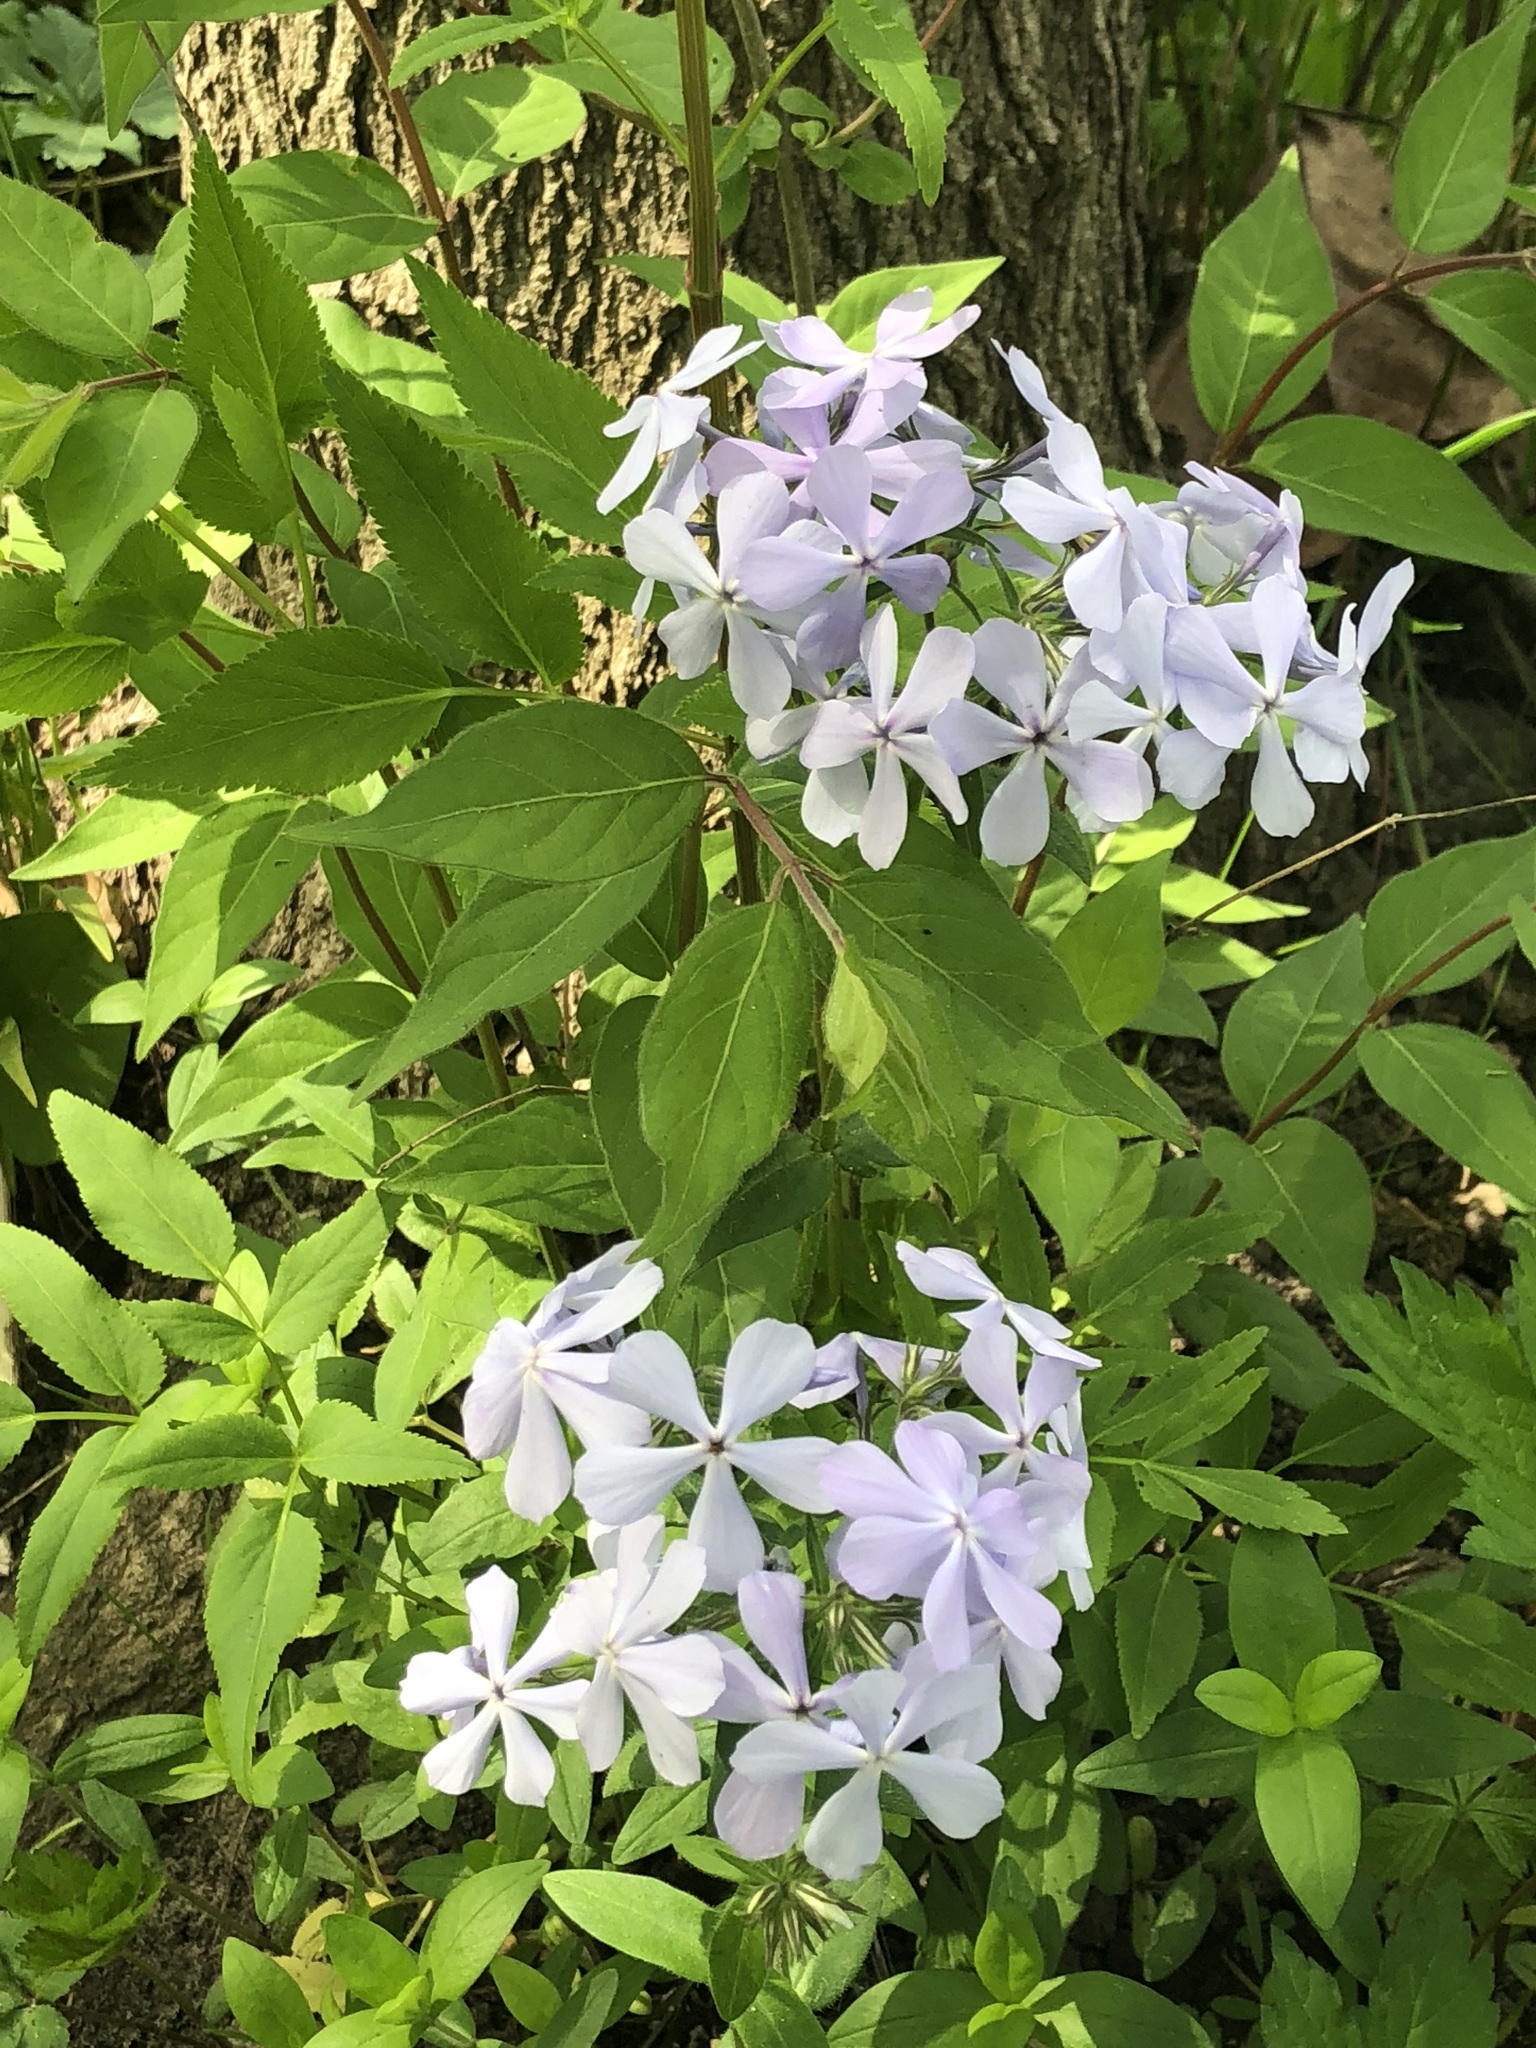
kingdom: Plantae
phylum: Tracheophyta
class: Magnoliopsida
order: Ericales
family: Polemoniaceae
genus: Phlox
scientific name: Phlox divaricata
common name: Blue phlox
